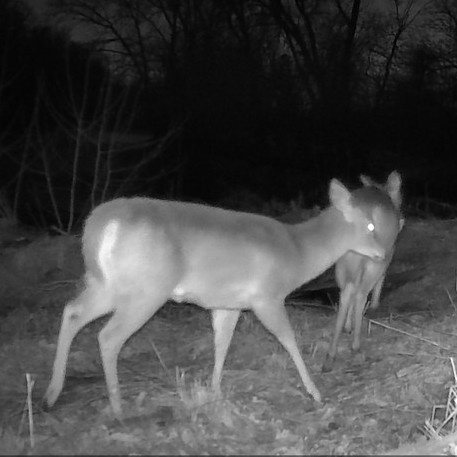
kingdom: Animalia
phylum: Chordata
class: Mammalia
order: Artiodactyla
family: Cervidae
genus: Odocoileus
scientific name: Odocoileus virginianus
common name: White-tailed deer
